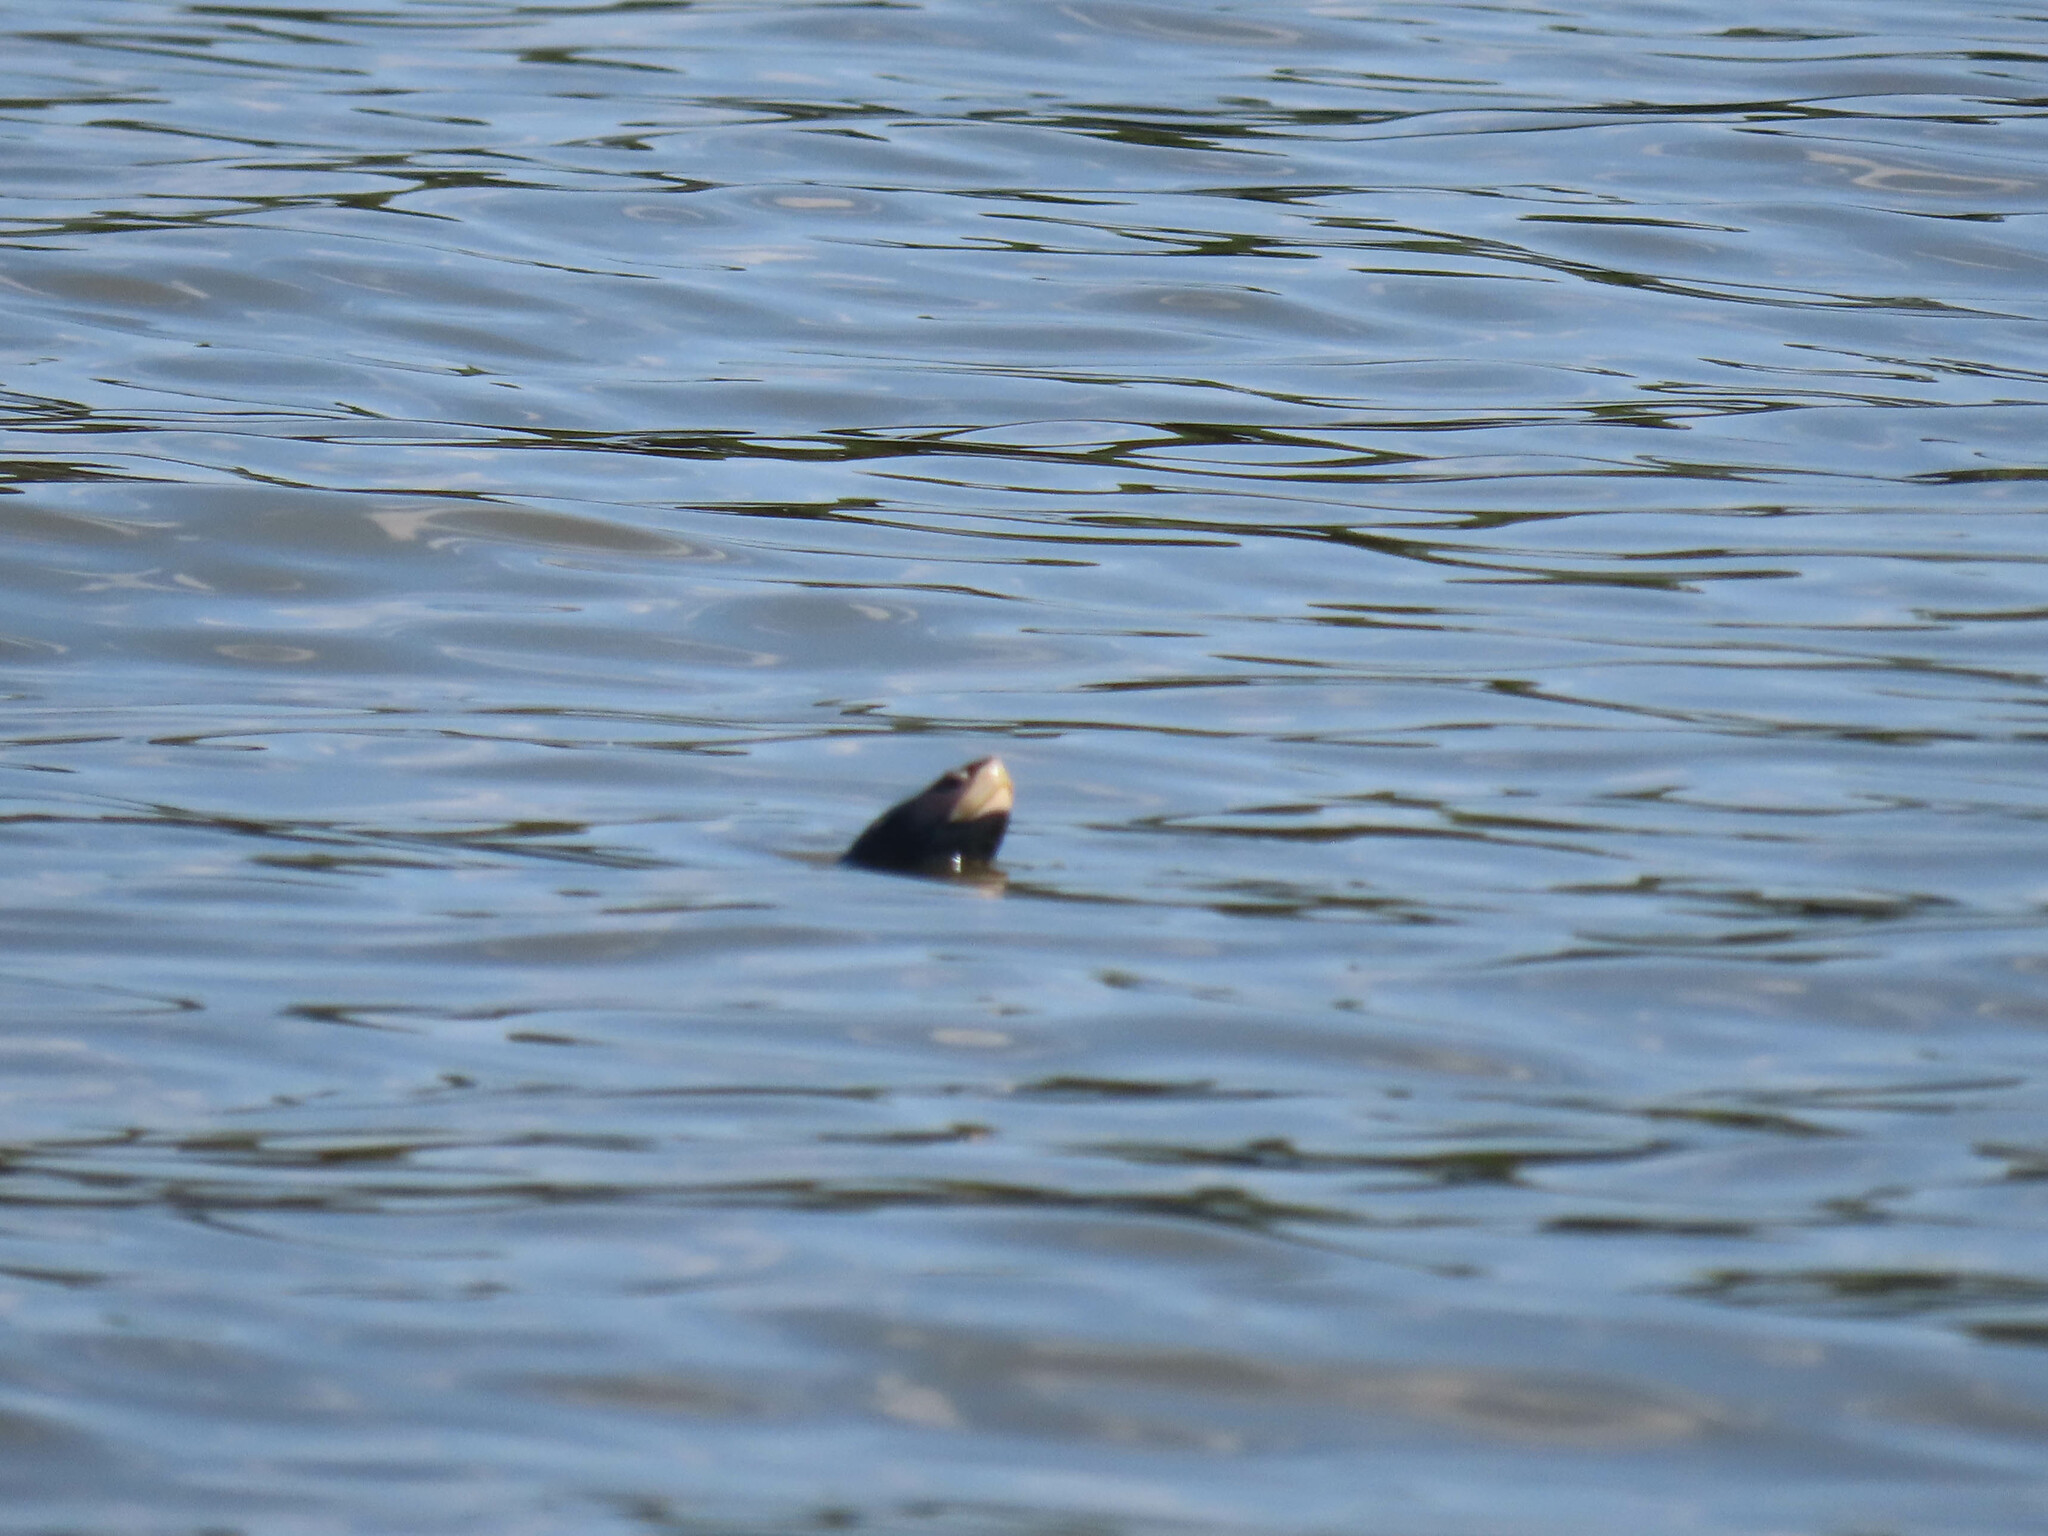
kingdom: Animalia
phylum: Chordata
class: Testudines
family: Emydidae
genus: Malaclemys
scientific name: Malaclemys terrapin
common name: Diamondback terrapin
